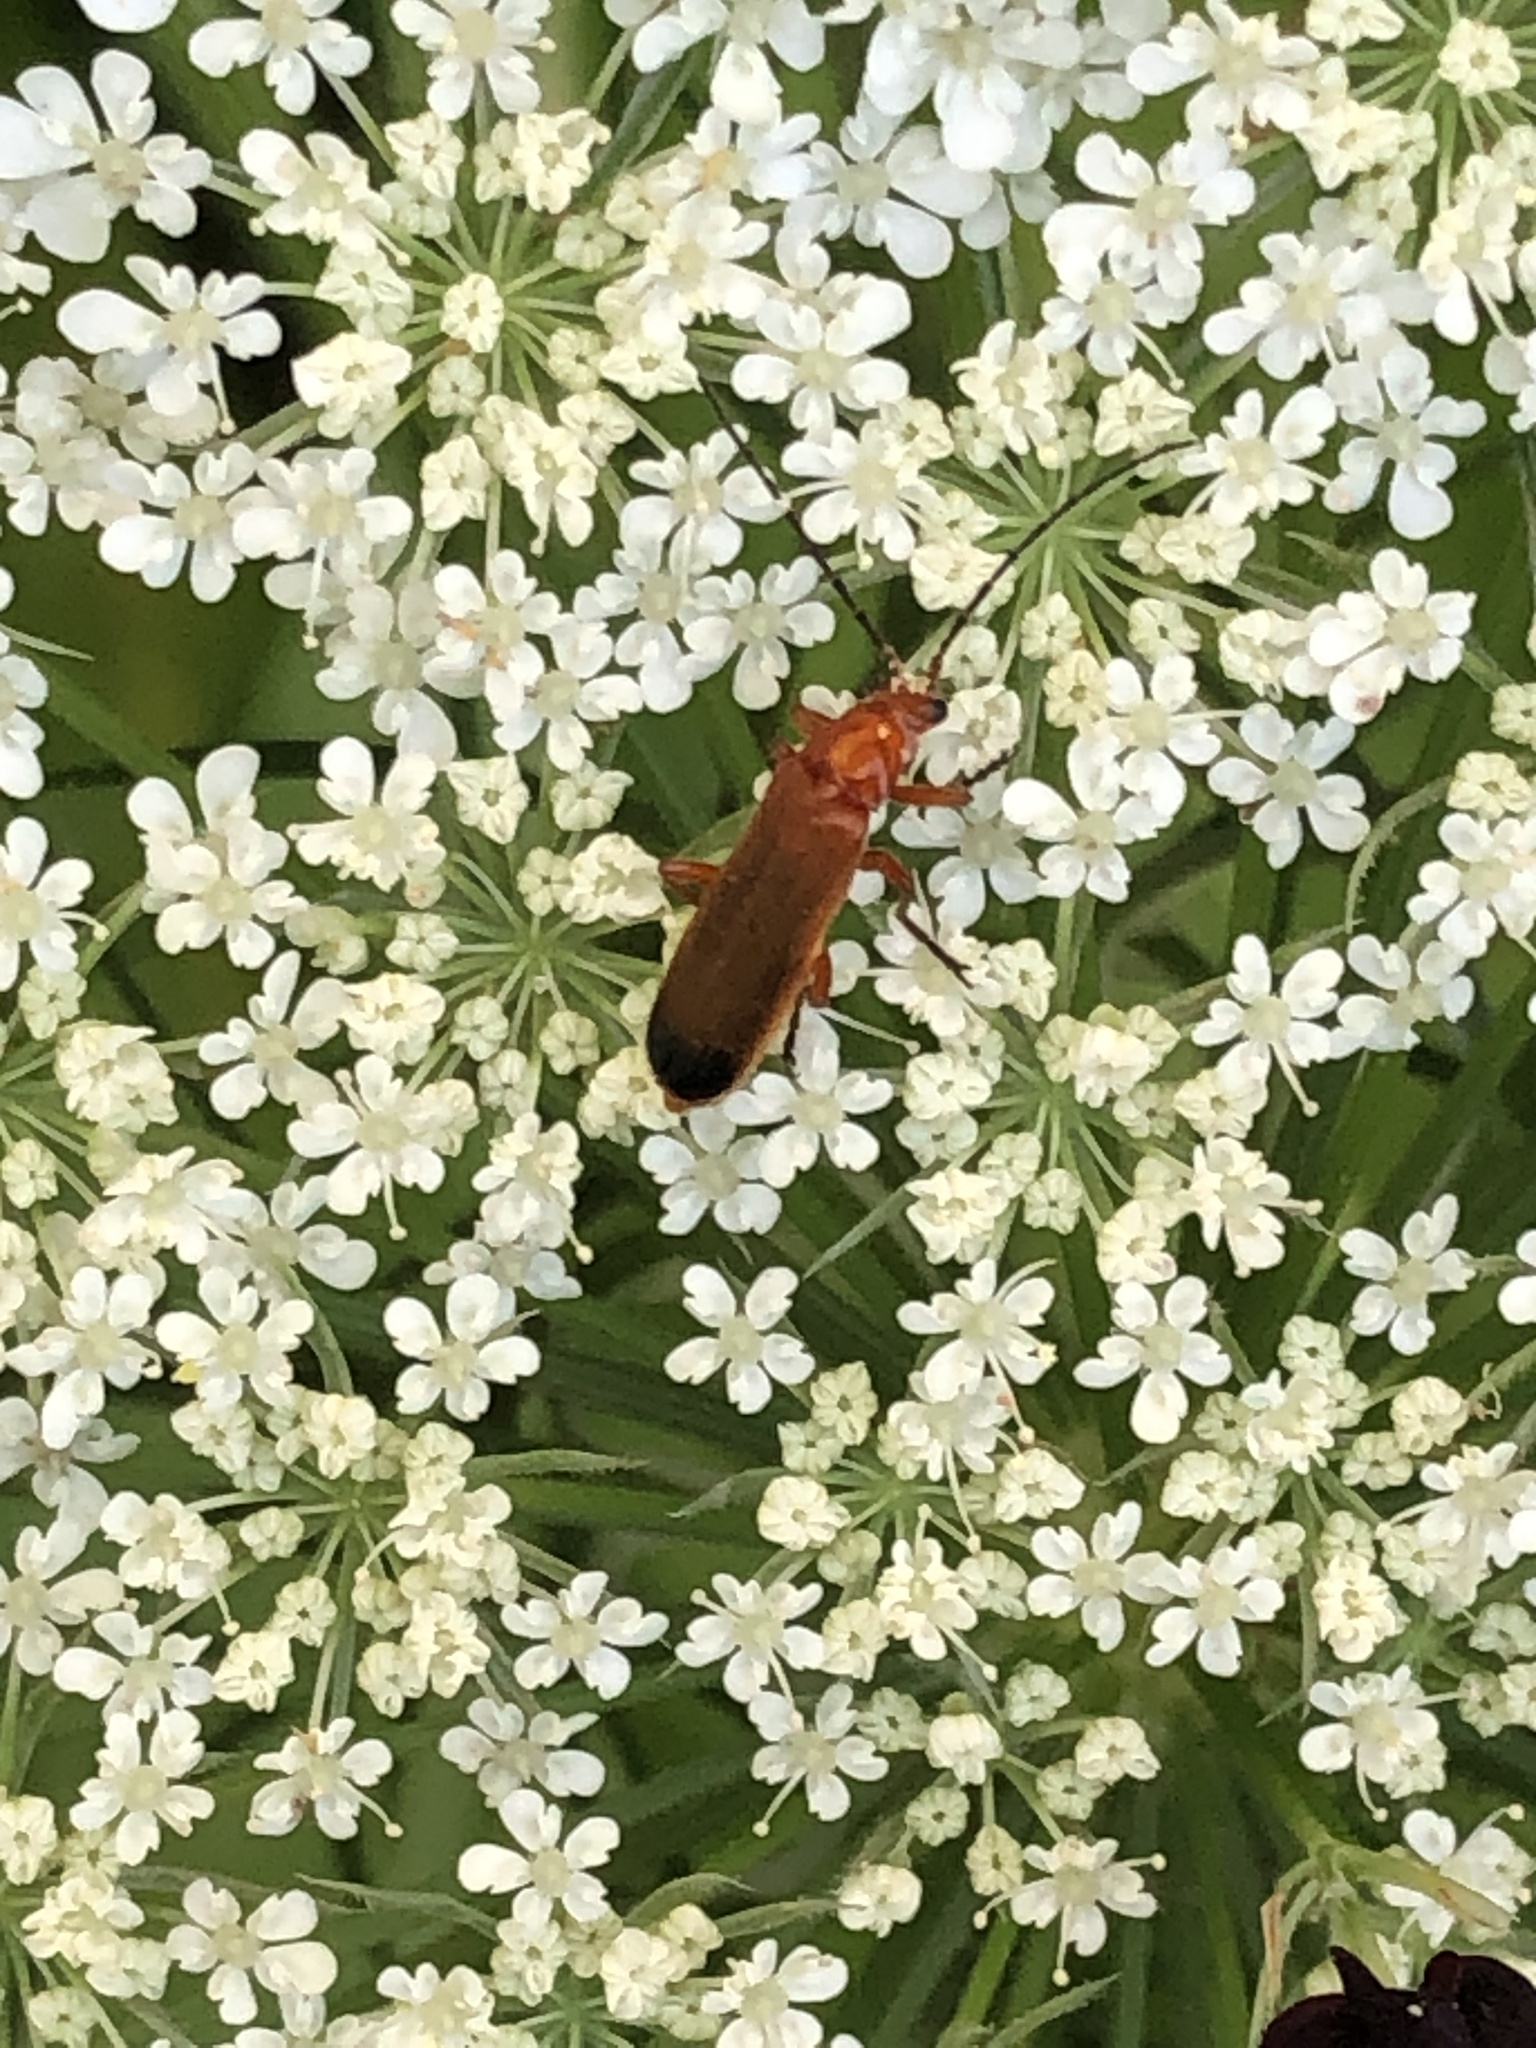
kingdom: Animalia
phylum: Arthropoda
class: Insecta
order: Coleoptera
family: Cantharidae
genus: Rhagonycha
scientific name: Rhagonycha fulva
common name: Common red soldier beetle
